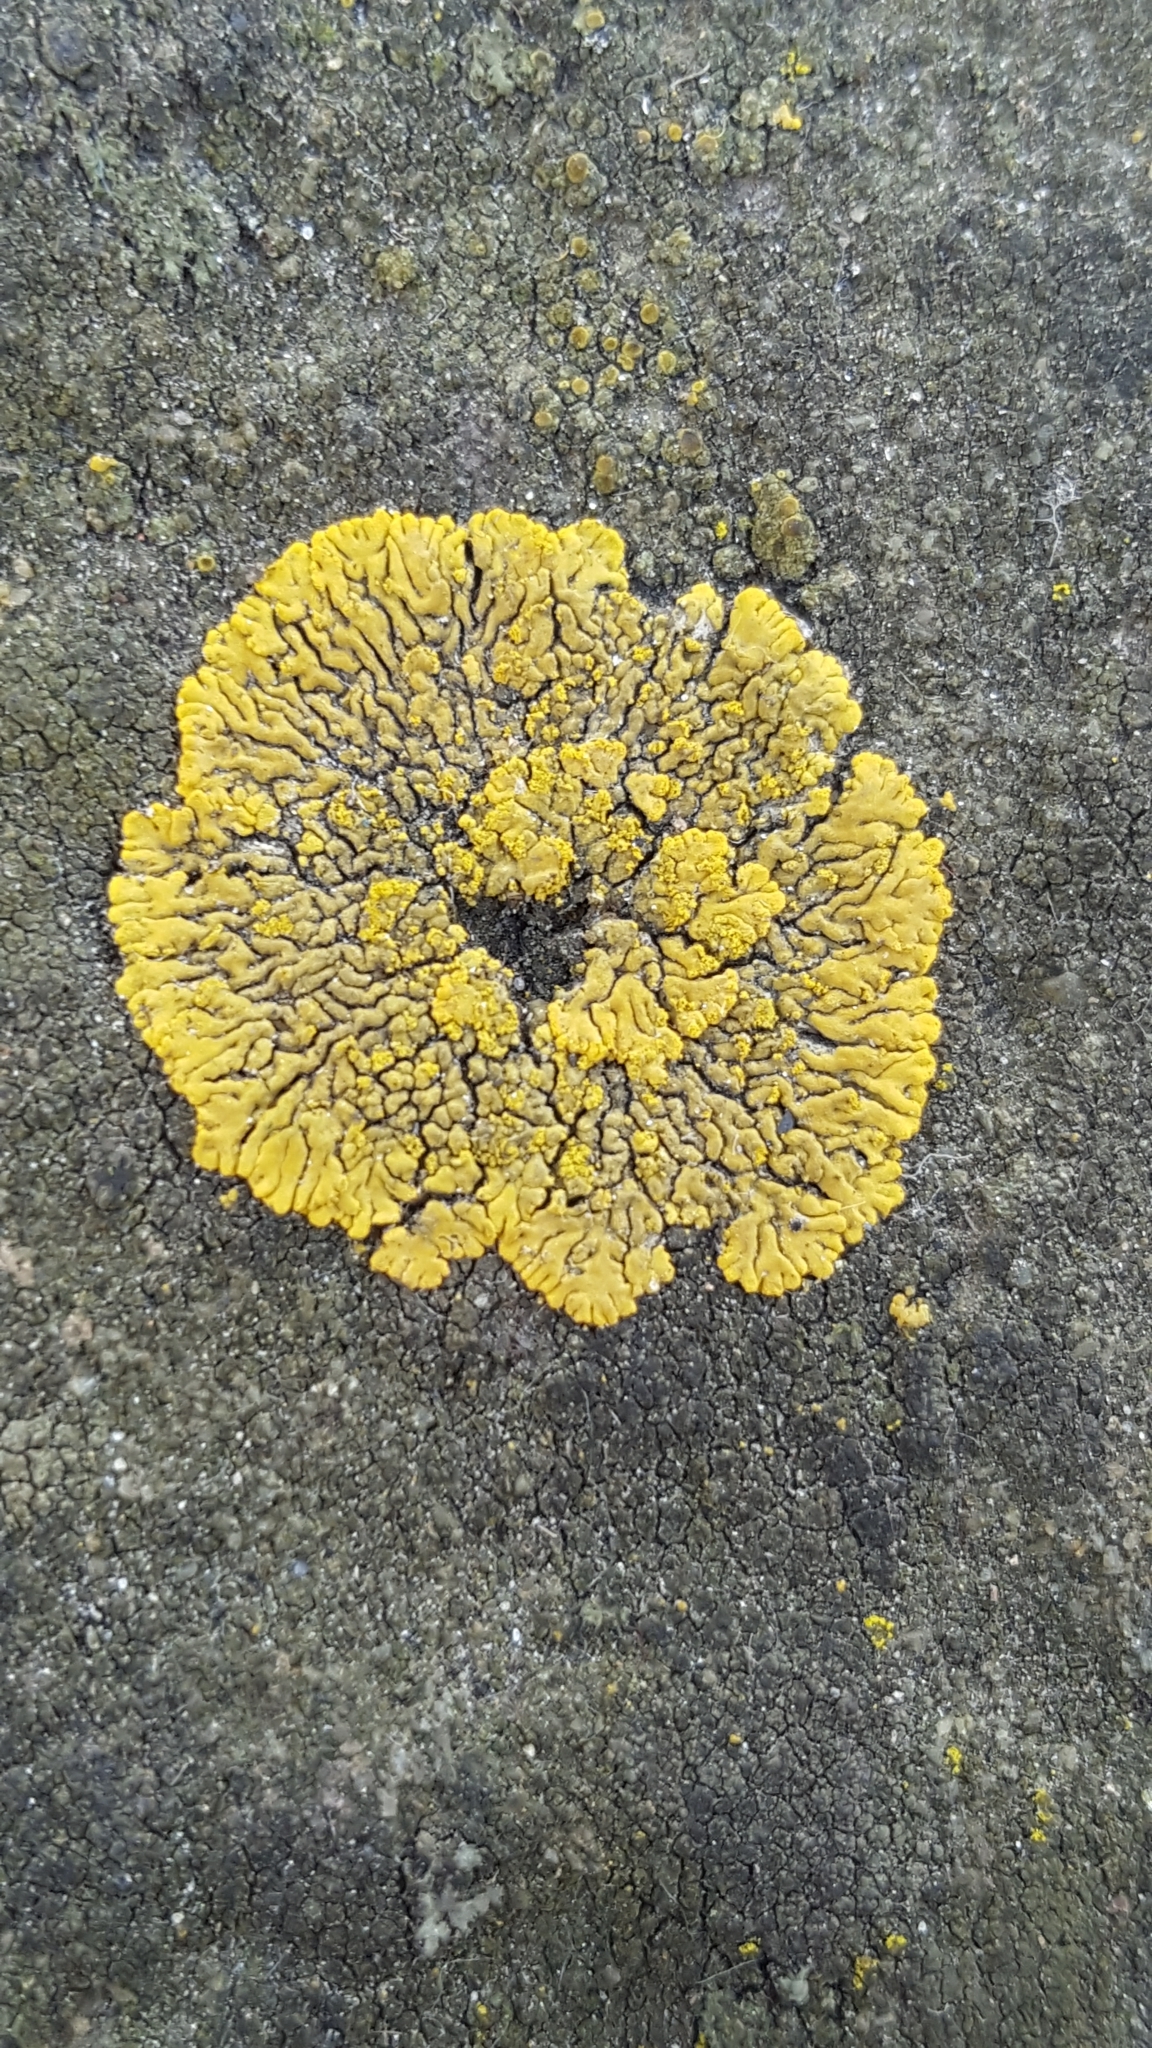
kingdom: Fungi
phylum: Ascomycota
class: Lecanoromycetes
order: Teloschistales
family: Teloschistaceae
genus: Calogaya
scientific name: Calogaya decipiens
